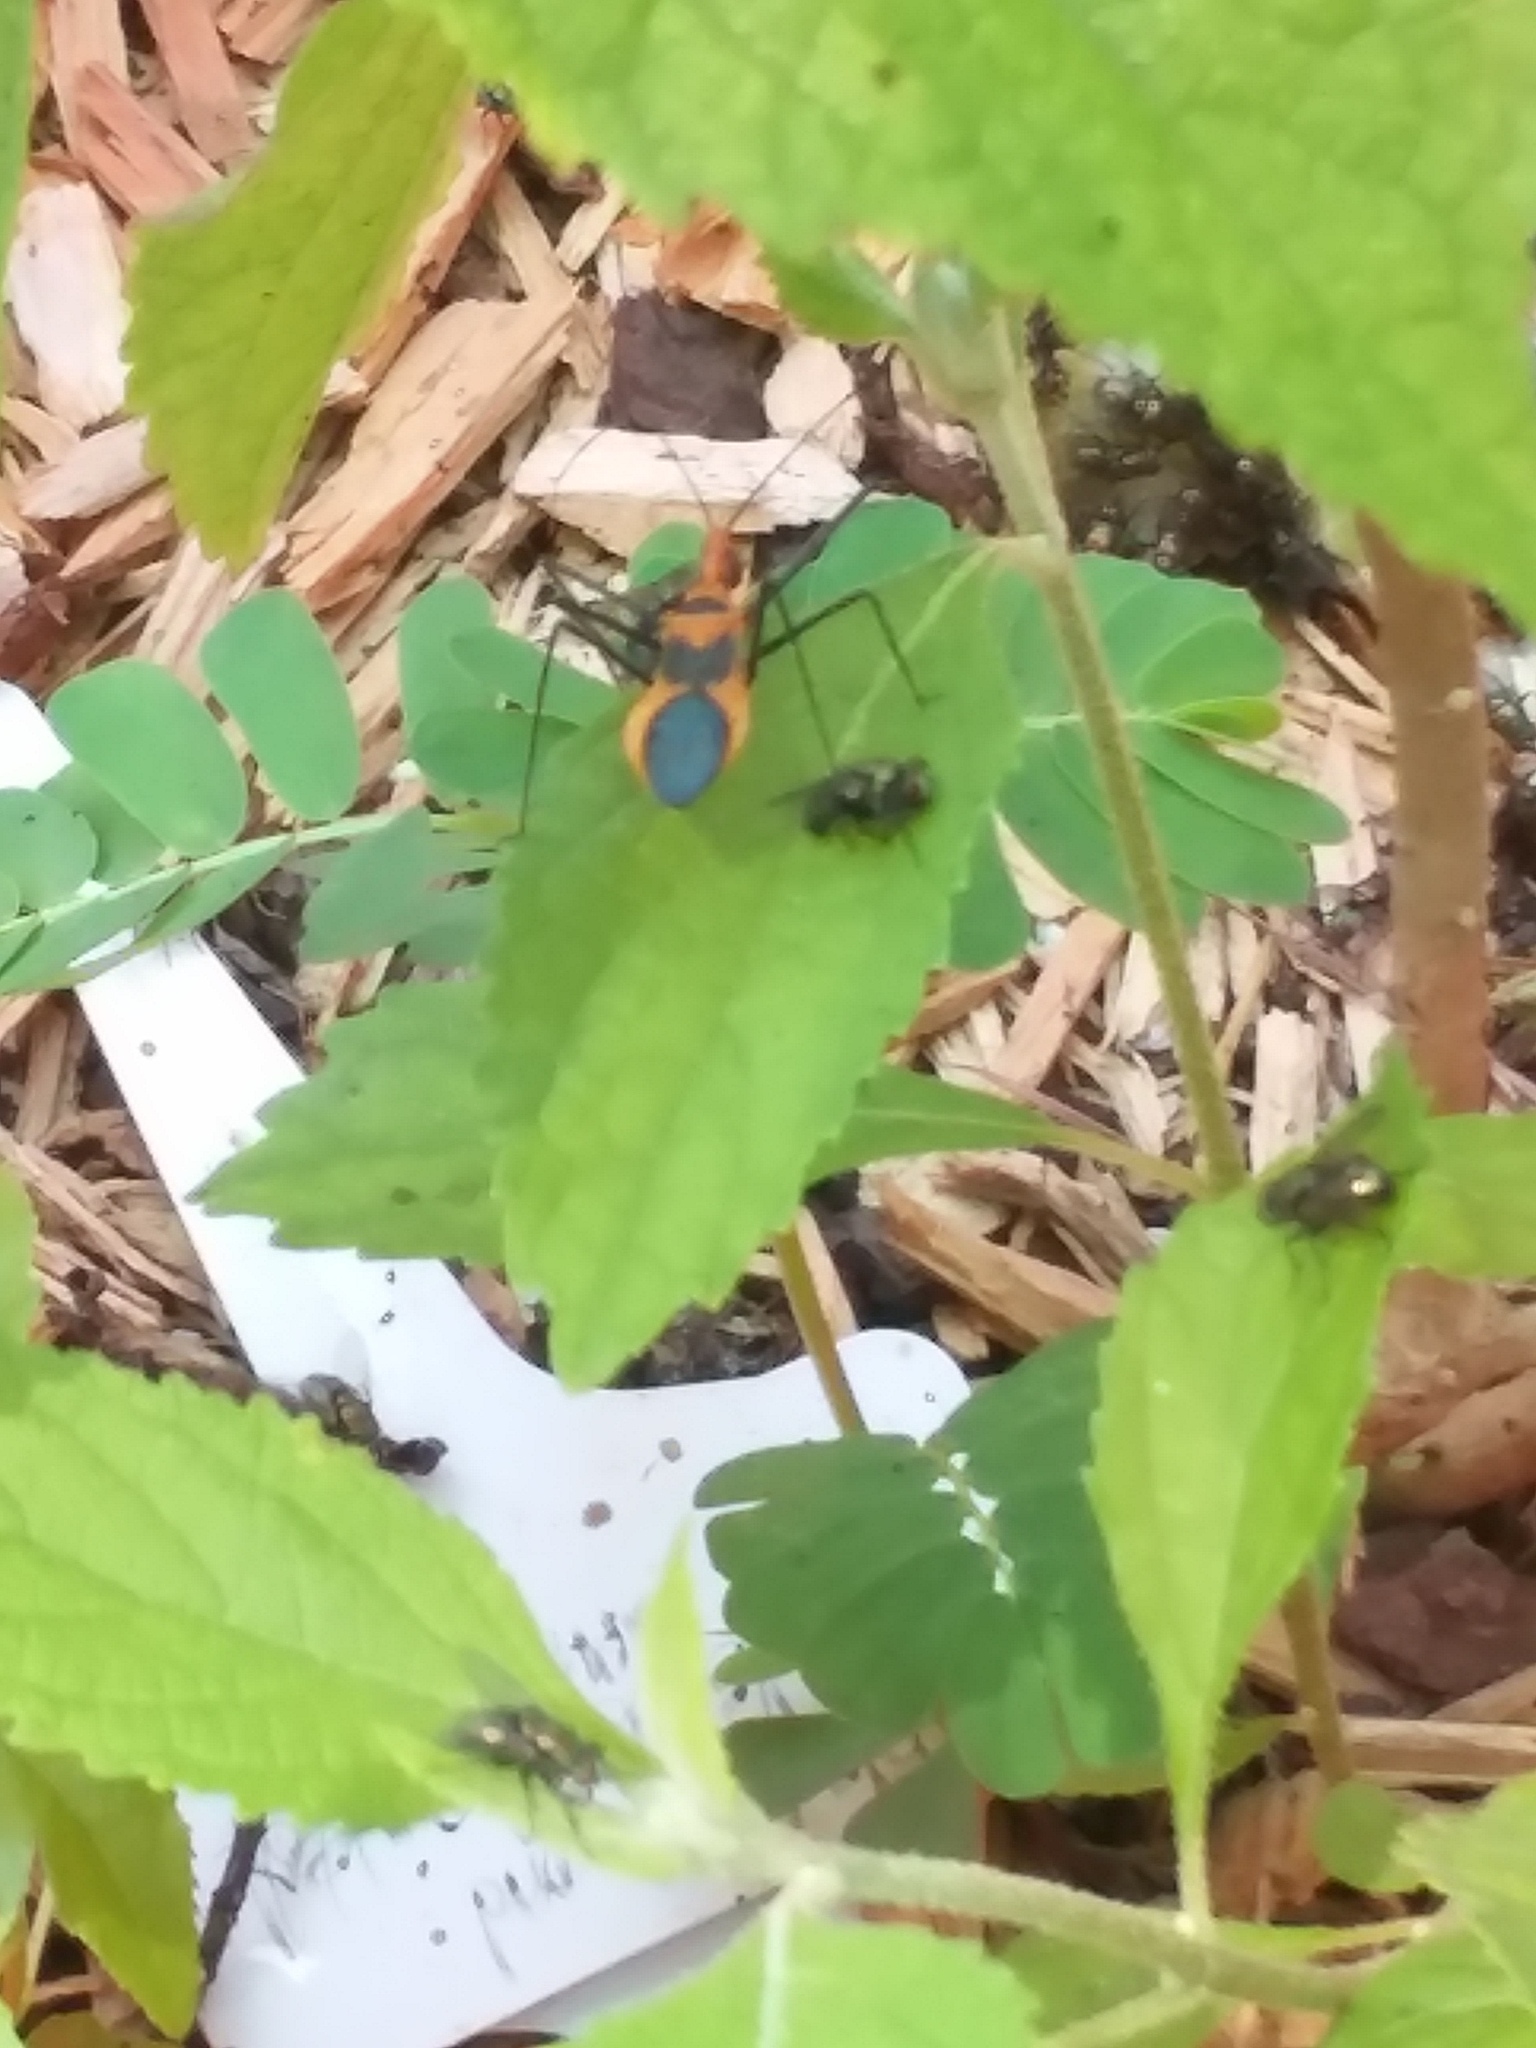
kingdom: Animalia
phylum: Arthropoda
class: Insecta
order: Hemiptera
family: Reduviidae
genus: Zelus
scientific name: Zelus longipes
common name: Milkweed assassin bug
